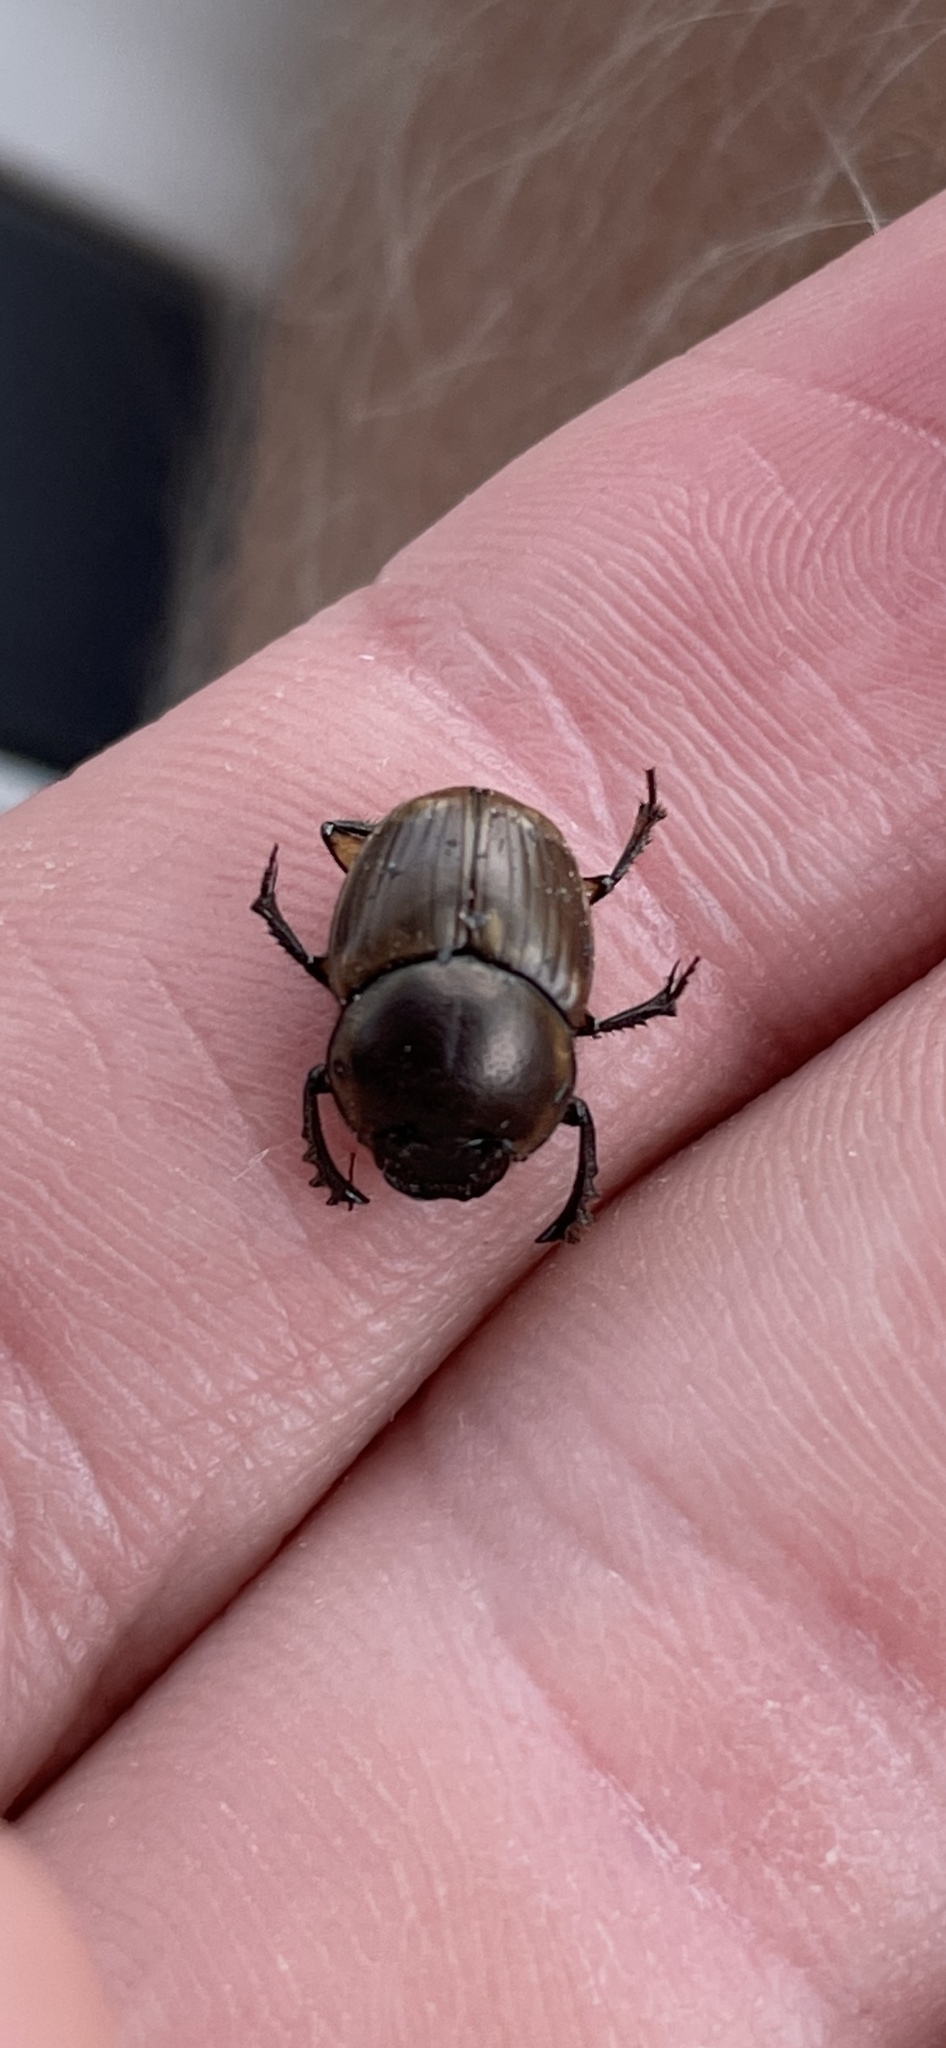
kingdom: Animalia
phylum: Arthropoda
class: Insecta
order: Coleoptera
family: Scarabaeidae
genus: Digitonthophagus
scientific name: Digitonthophagus gazella
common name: Brown dung beetle
